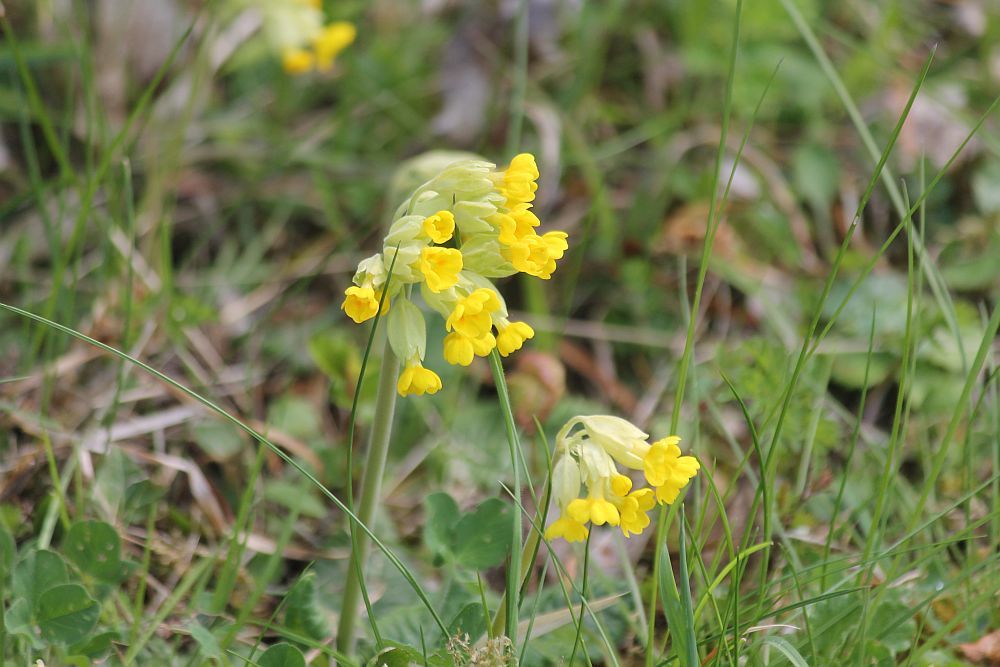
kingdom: Plantae
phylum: Tracheophyta
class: Magnoliopsida
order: Ericales
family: Primulaceae
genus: Primula
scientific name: Primula veris
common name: Cowslip
